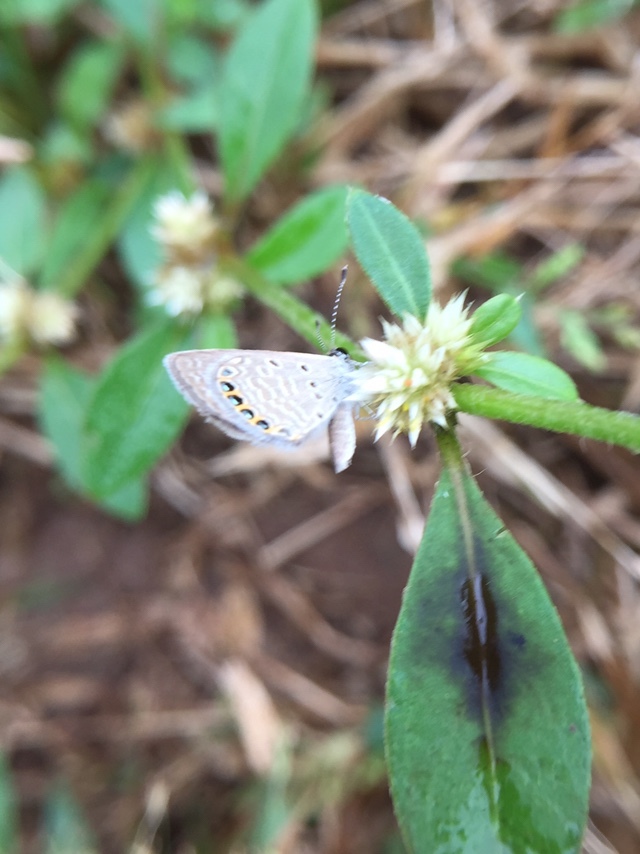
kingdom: Animalia
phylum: Arthropoda
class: Insecta
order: Lepidoptera
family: Lycaenidae
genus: Freyeria
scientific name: Freyeria putli
